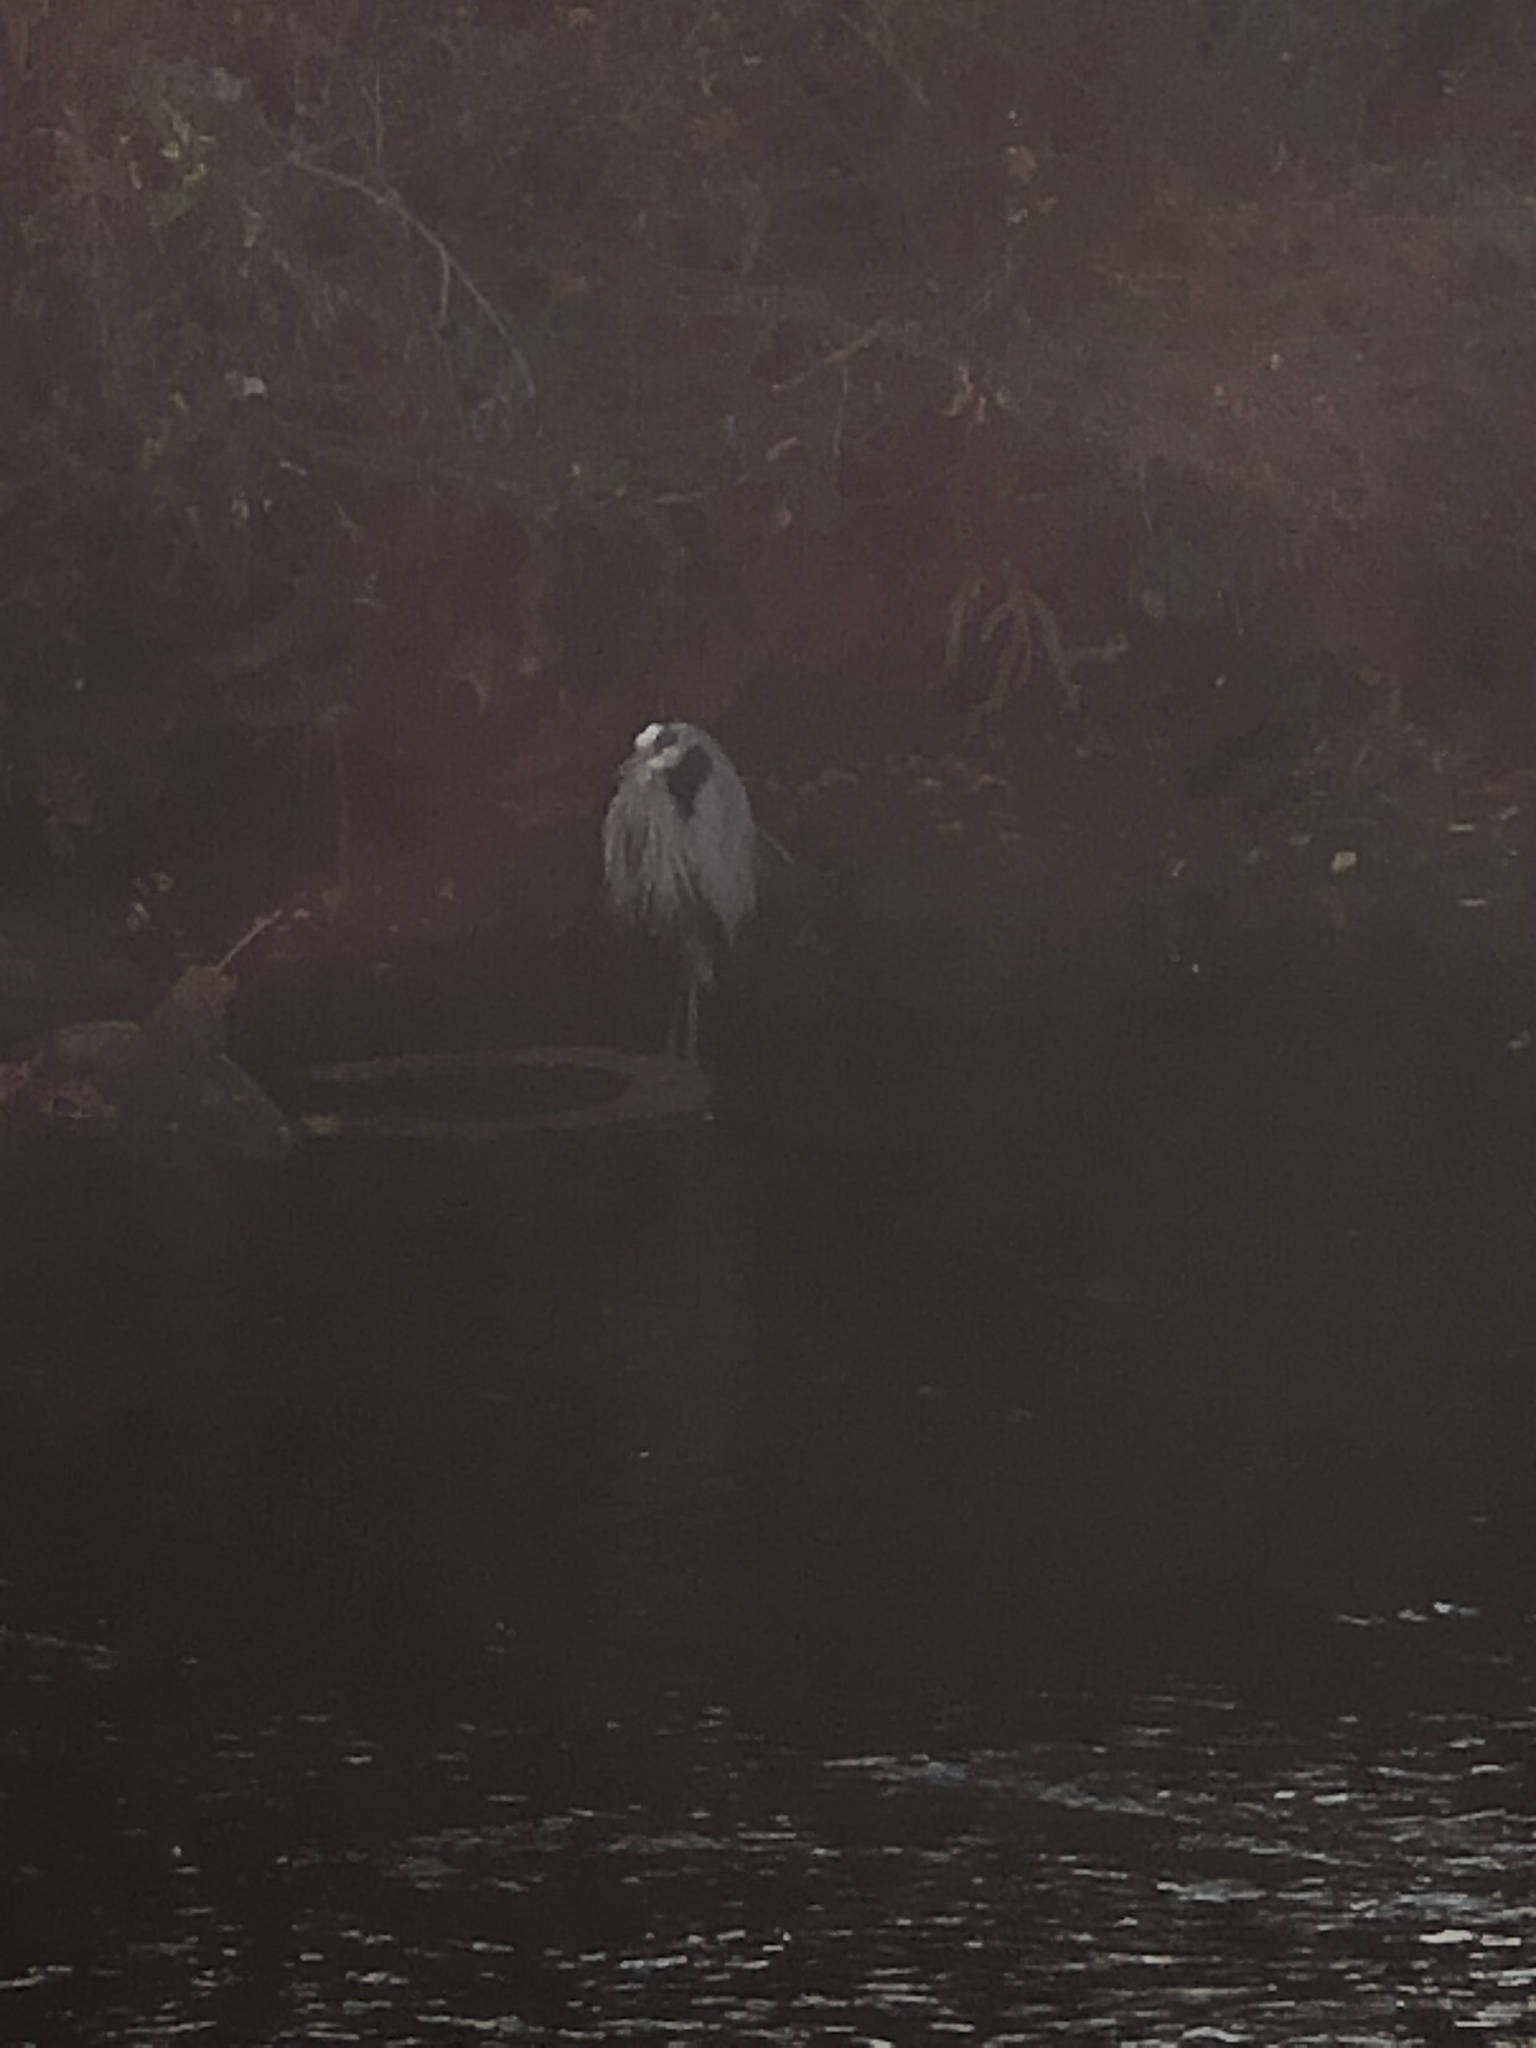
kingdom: Animalia
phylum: Chordata
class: Aves
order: Pelecaniformes
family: Ardeidae
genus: Ardea
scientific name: Ardea herodias
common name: Great blue heron
